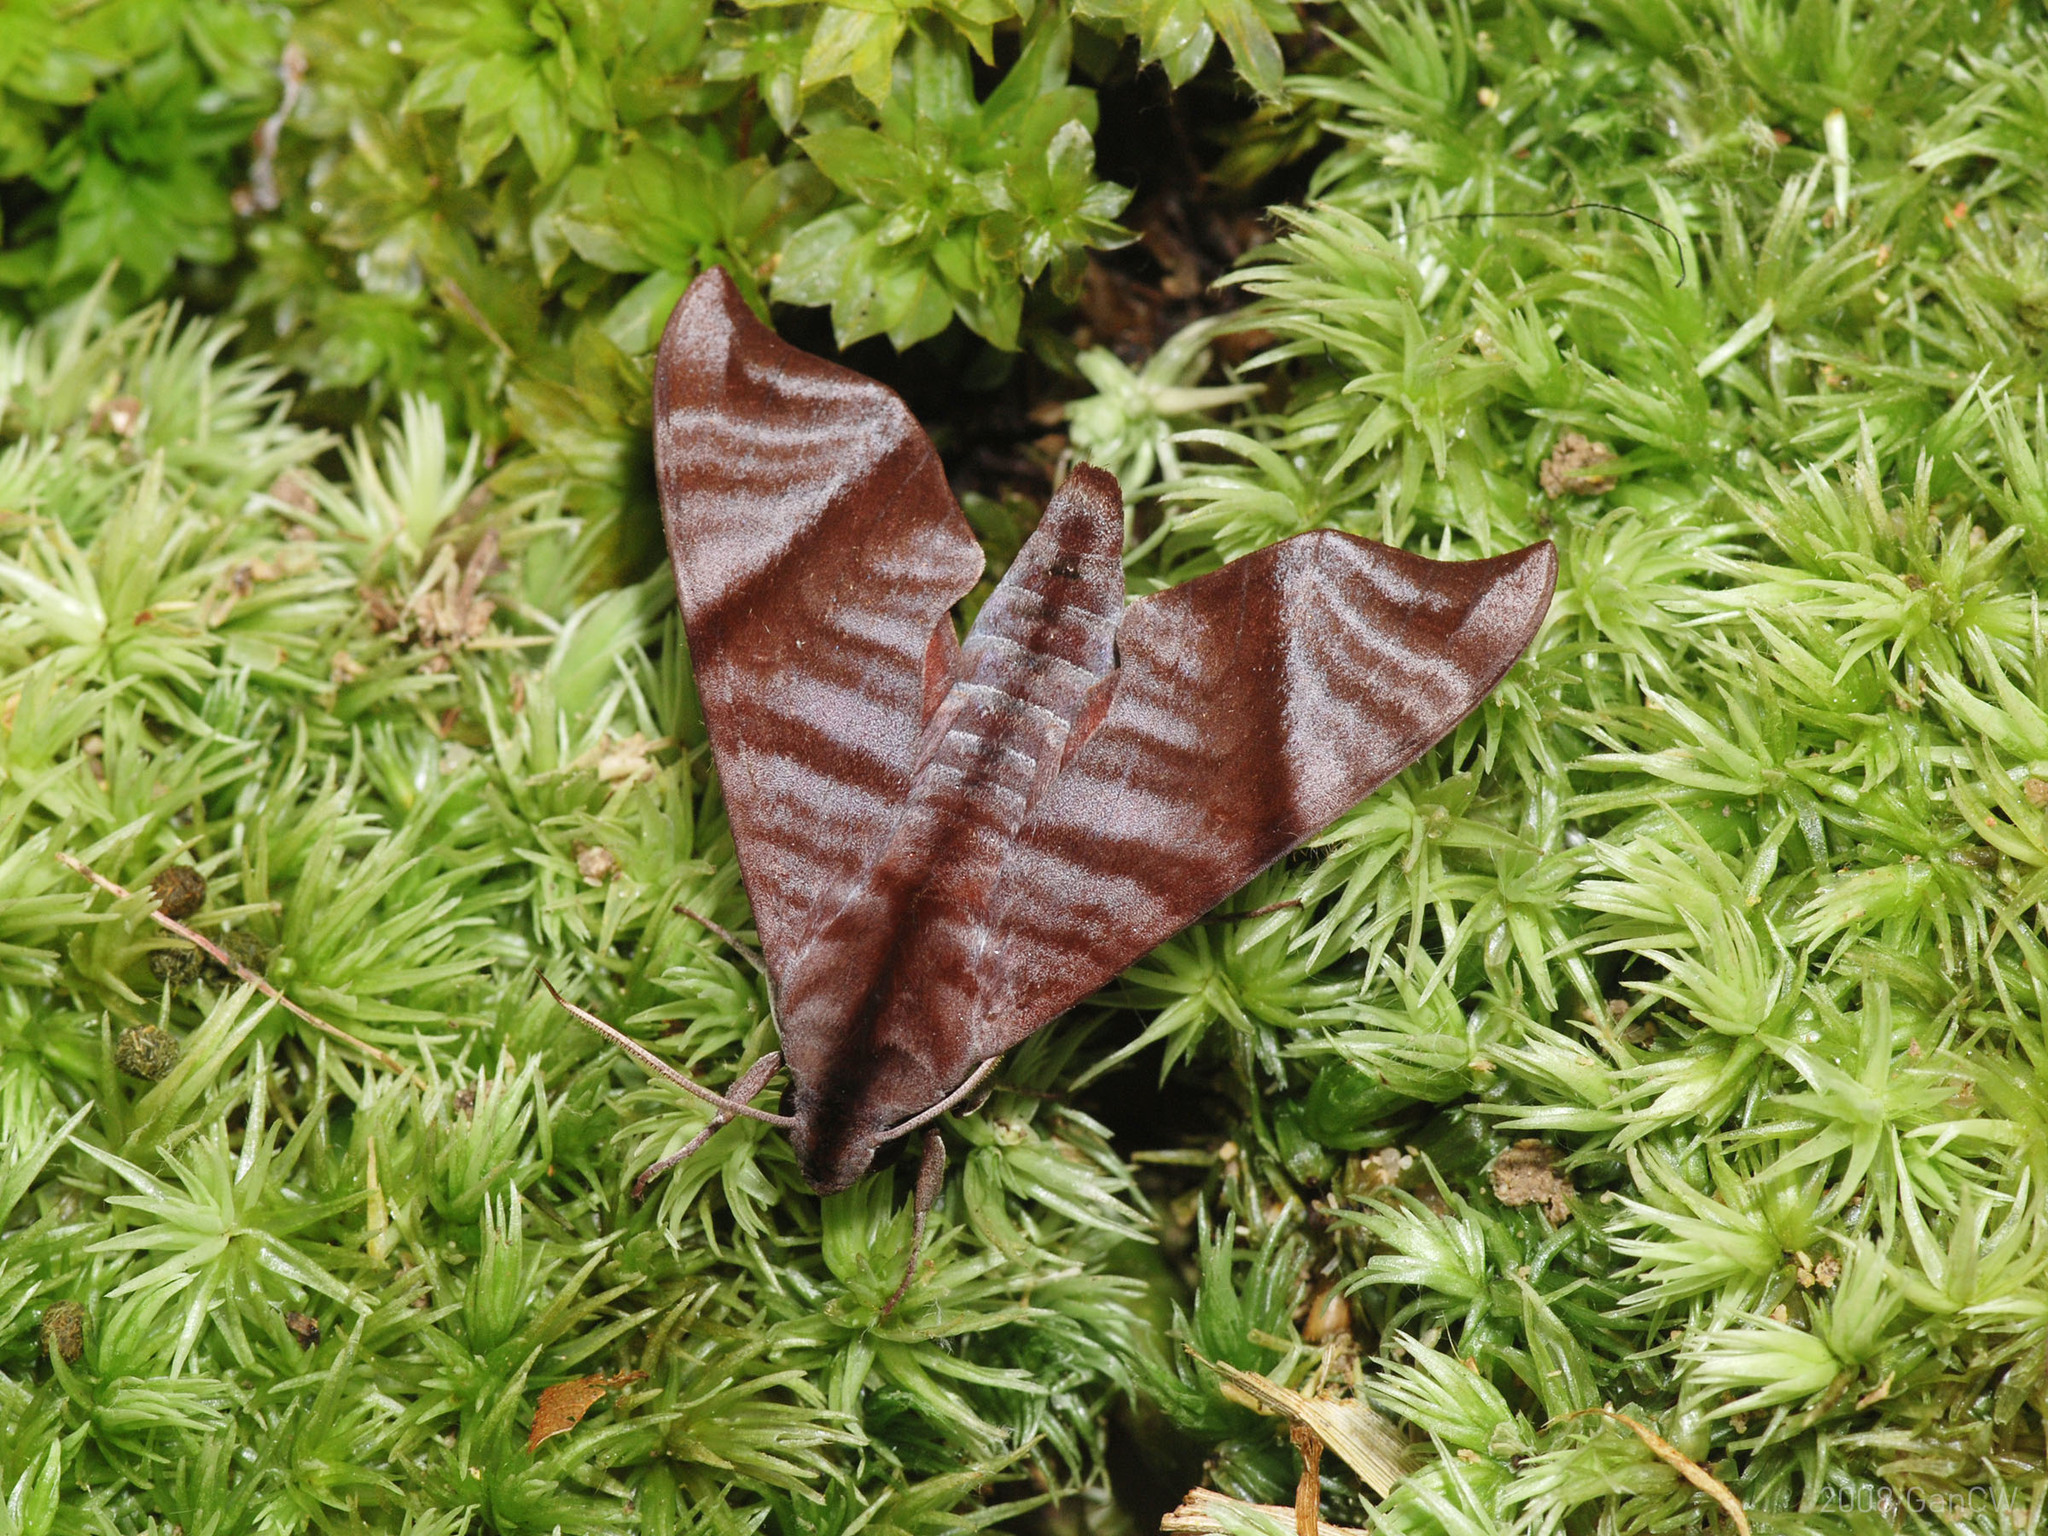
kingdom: Animalia
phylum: Arthropoda
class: Insecta
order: Lepidoptera
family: Sphingidae
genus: Dahira
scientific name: Dahira falcata
